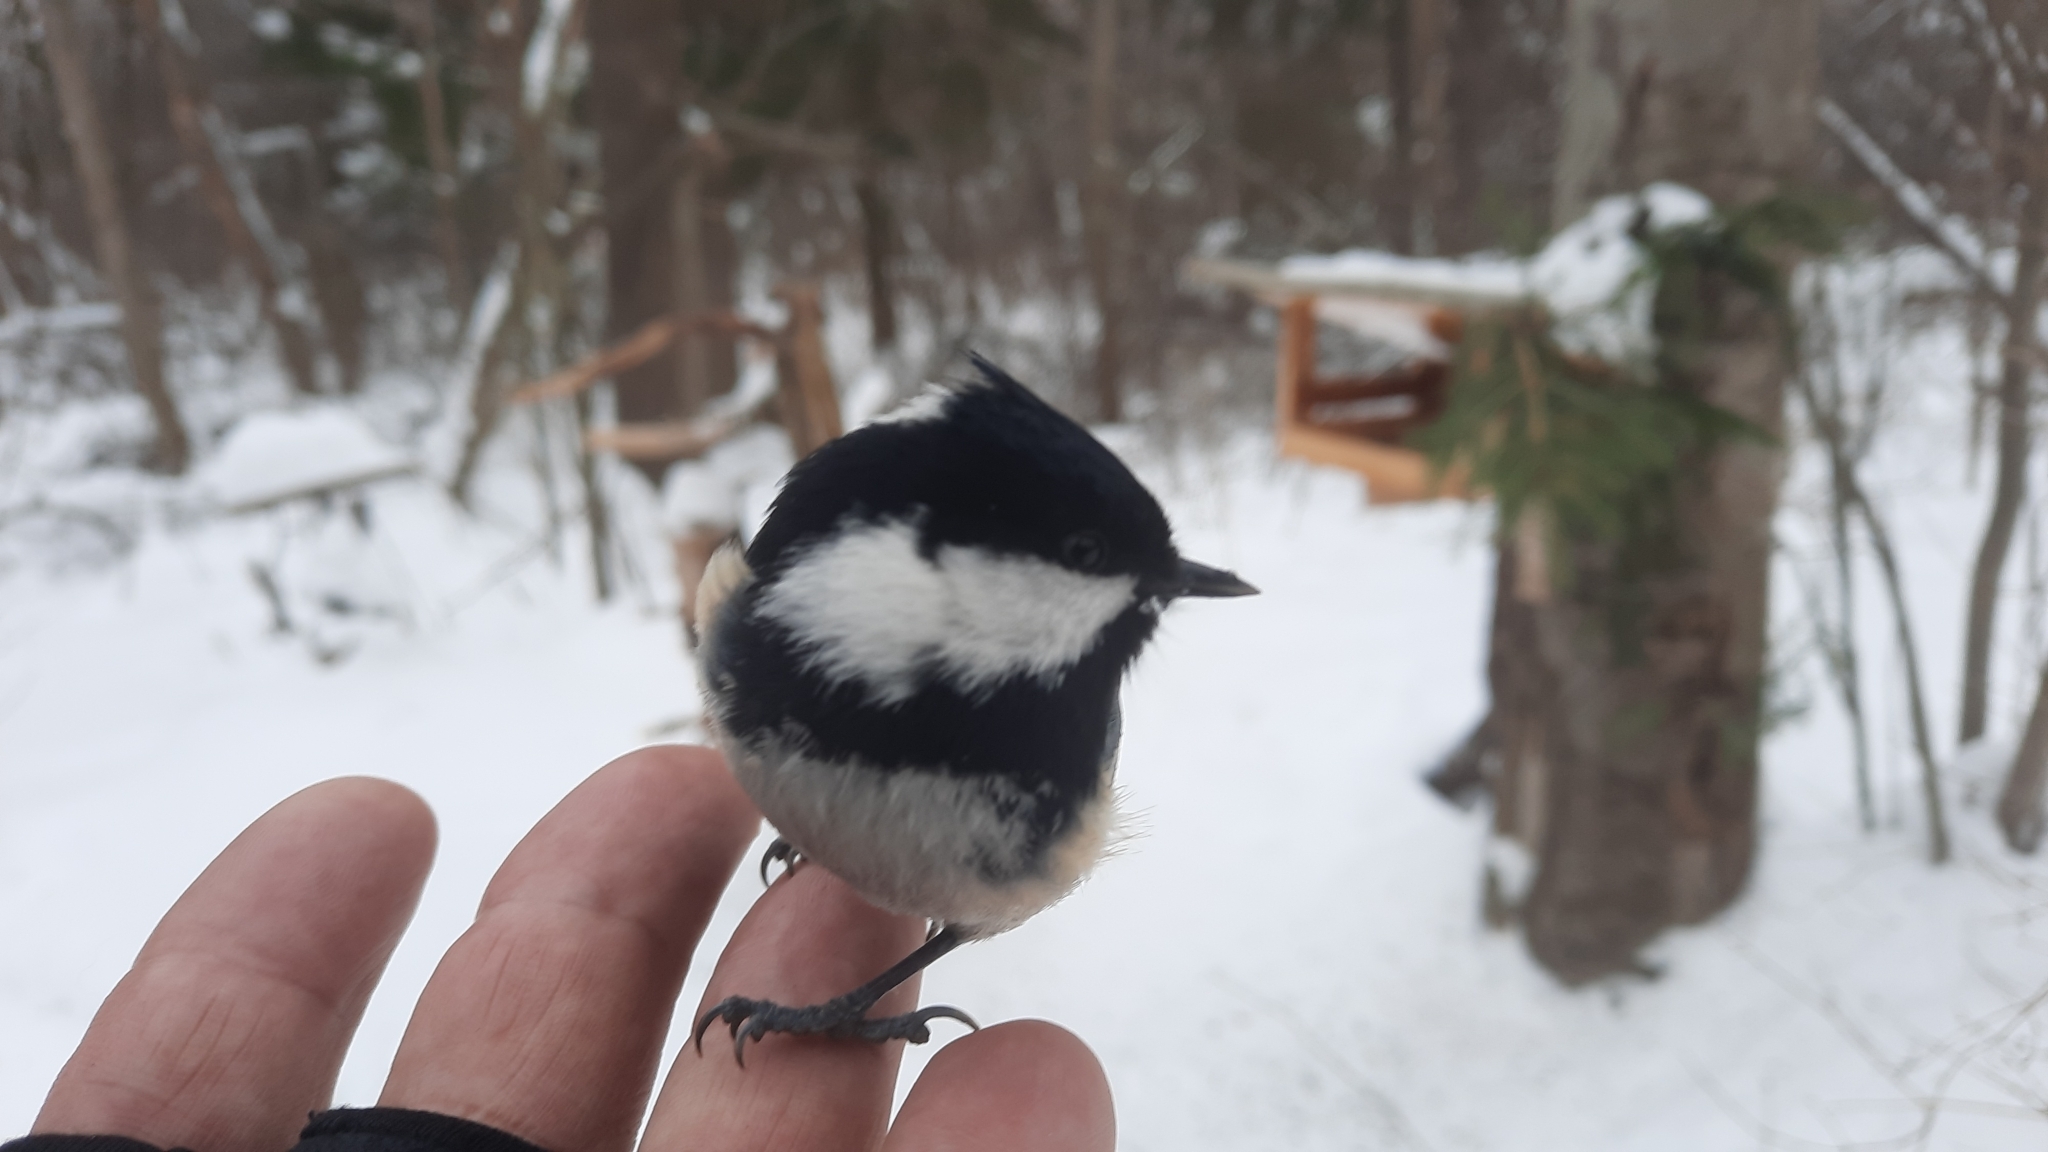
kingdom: Animalia
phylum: Chordata
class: Aves
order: Passeriformes
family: Paridae
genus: Periparus
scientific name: Periparus ater
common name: Coal tit
